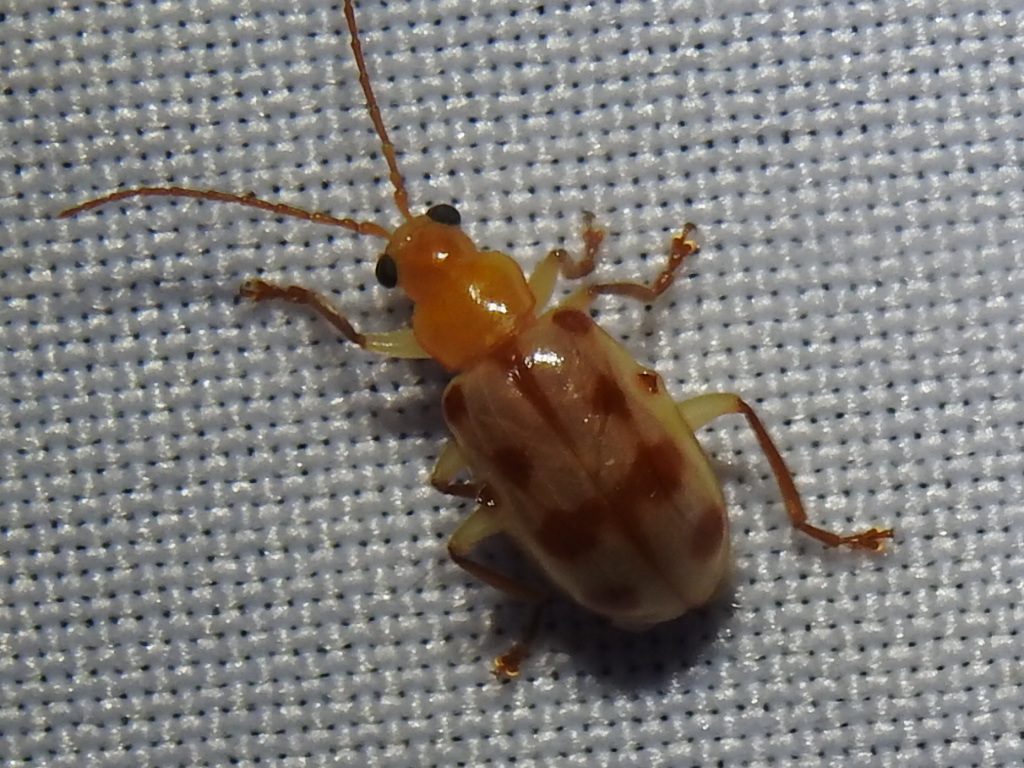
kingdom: Animalia
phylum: Arthropoda
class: Insecta
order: Coleoptera
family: Chrysomelidae
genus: Malacorhinus
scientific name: Malacorhinus
